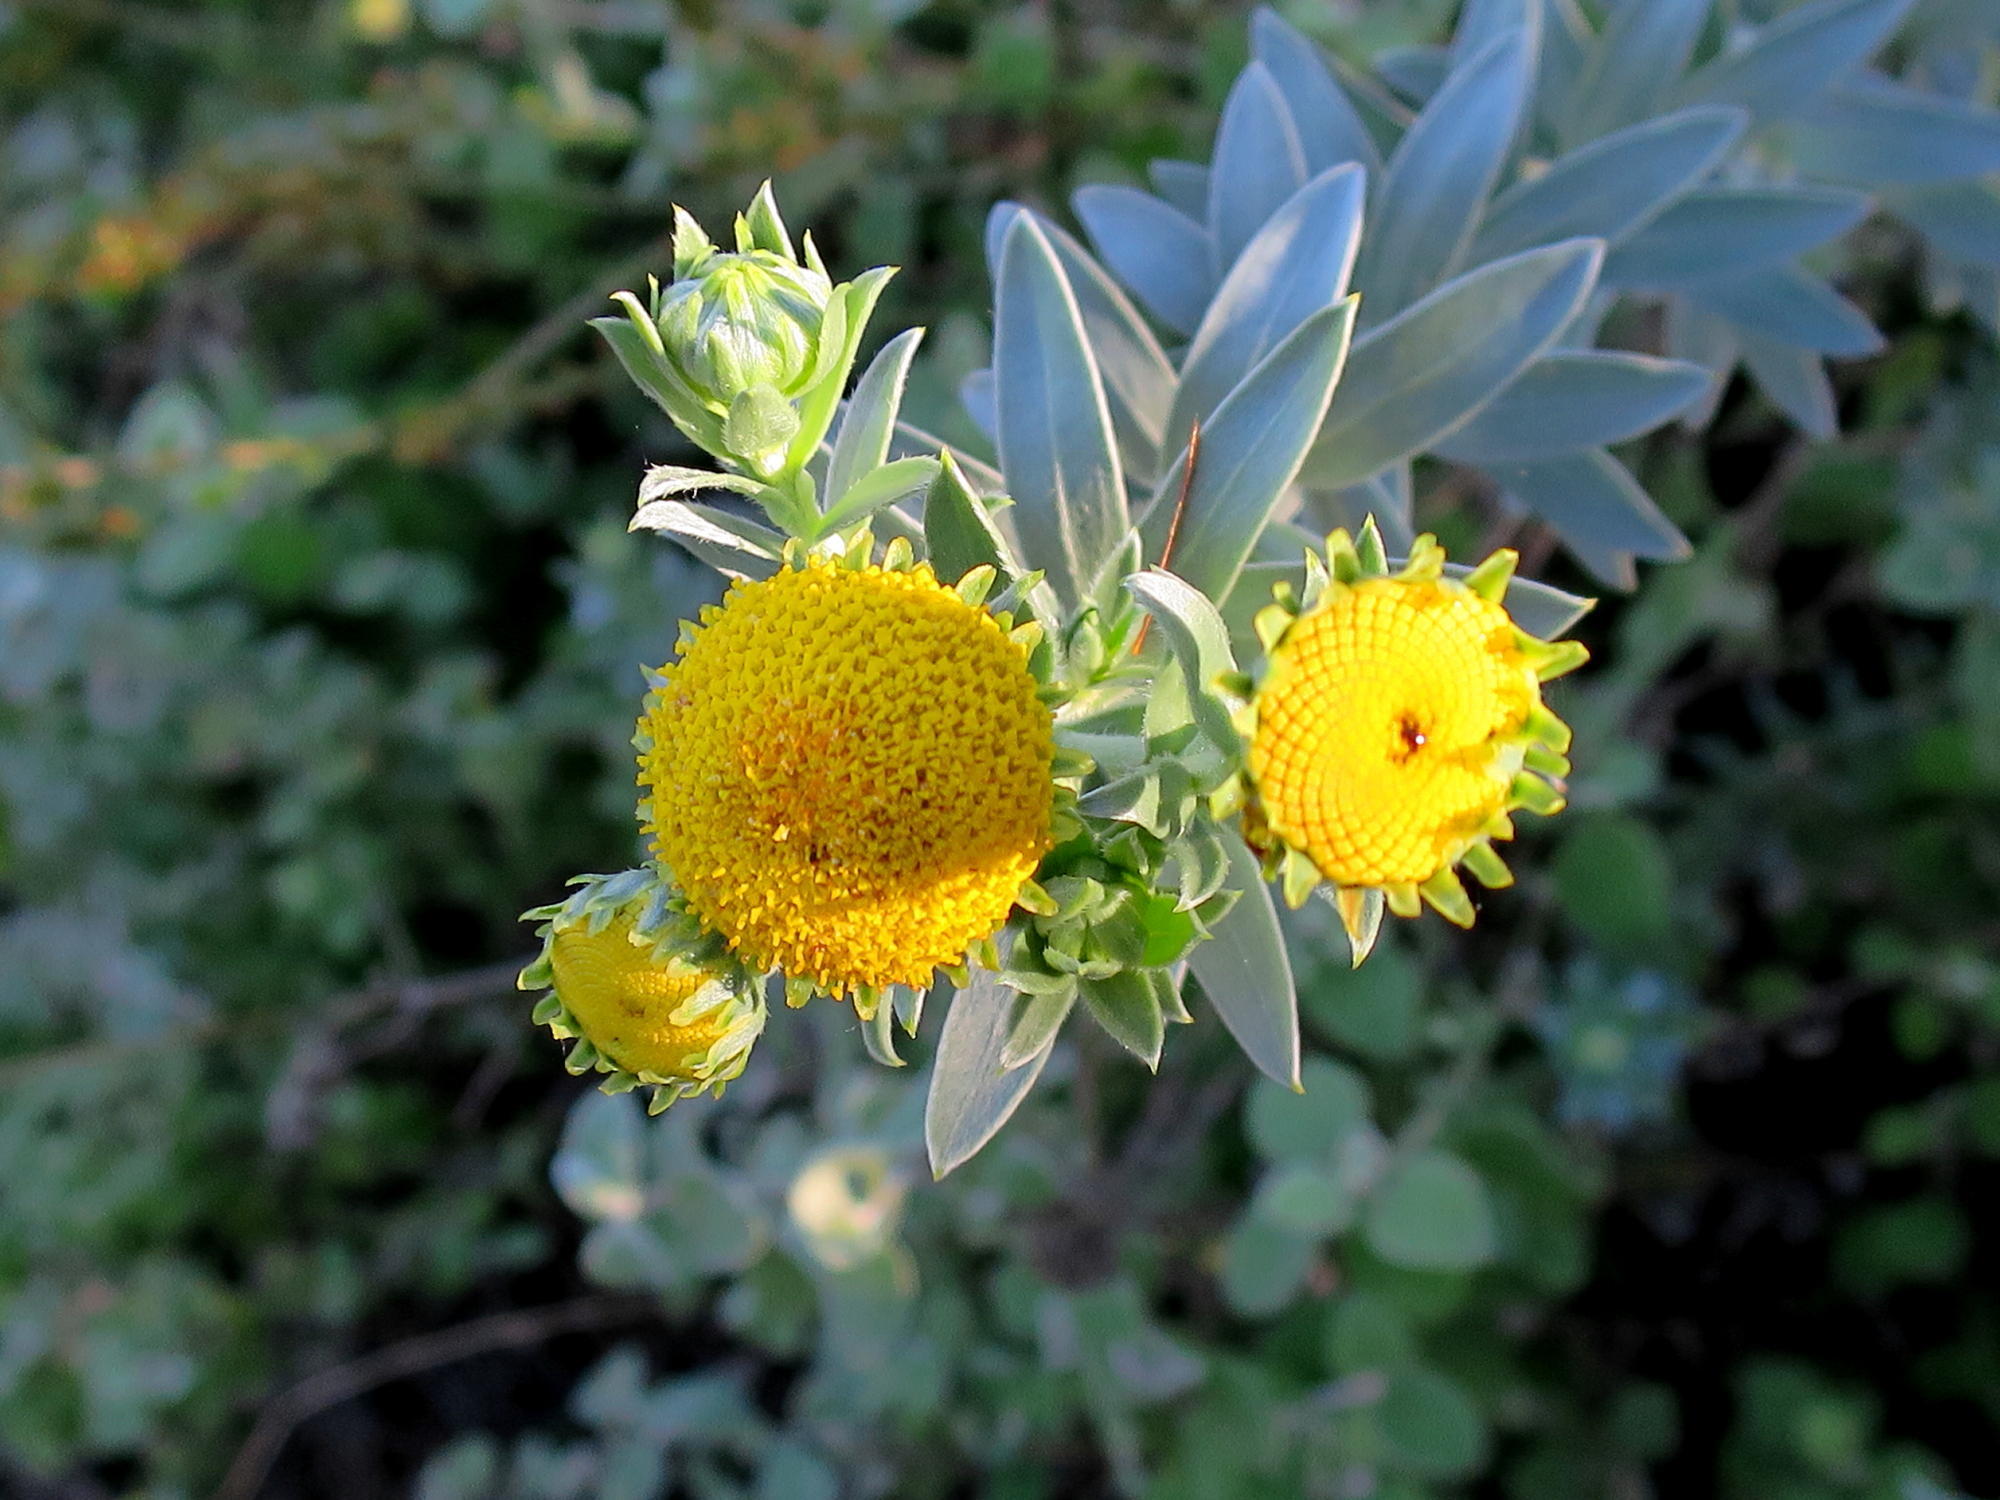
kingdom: Plantae
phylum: Tracheophyta
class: Magnoliopsida
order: Asterales
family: Asteraceae
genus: Schistostephium
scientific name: Schistostephium umbellatum
